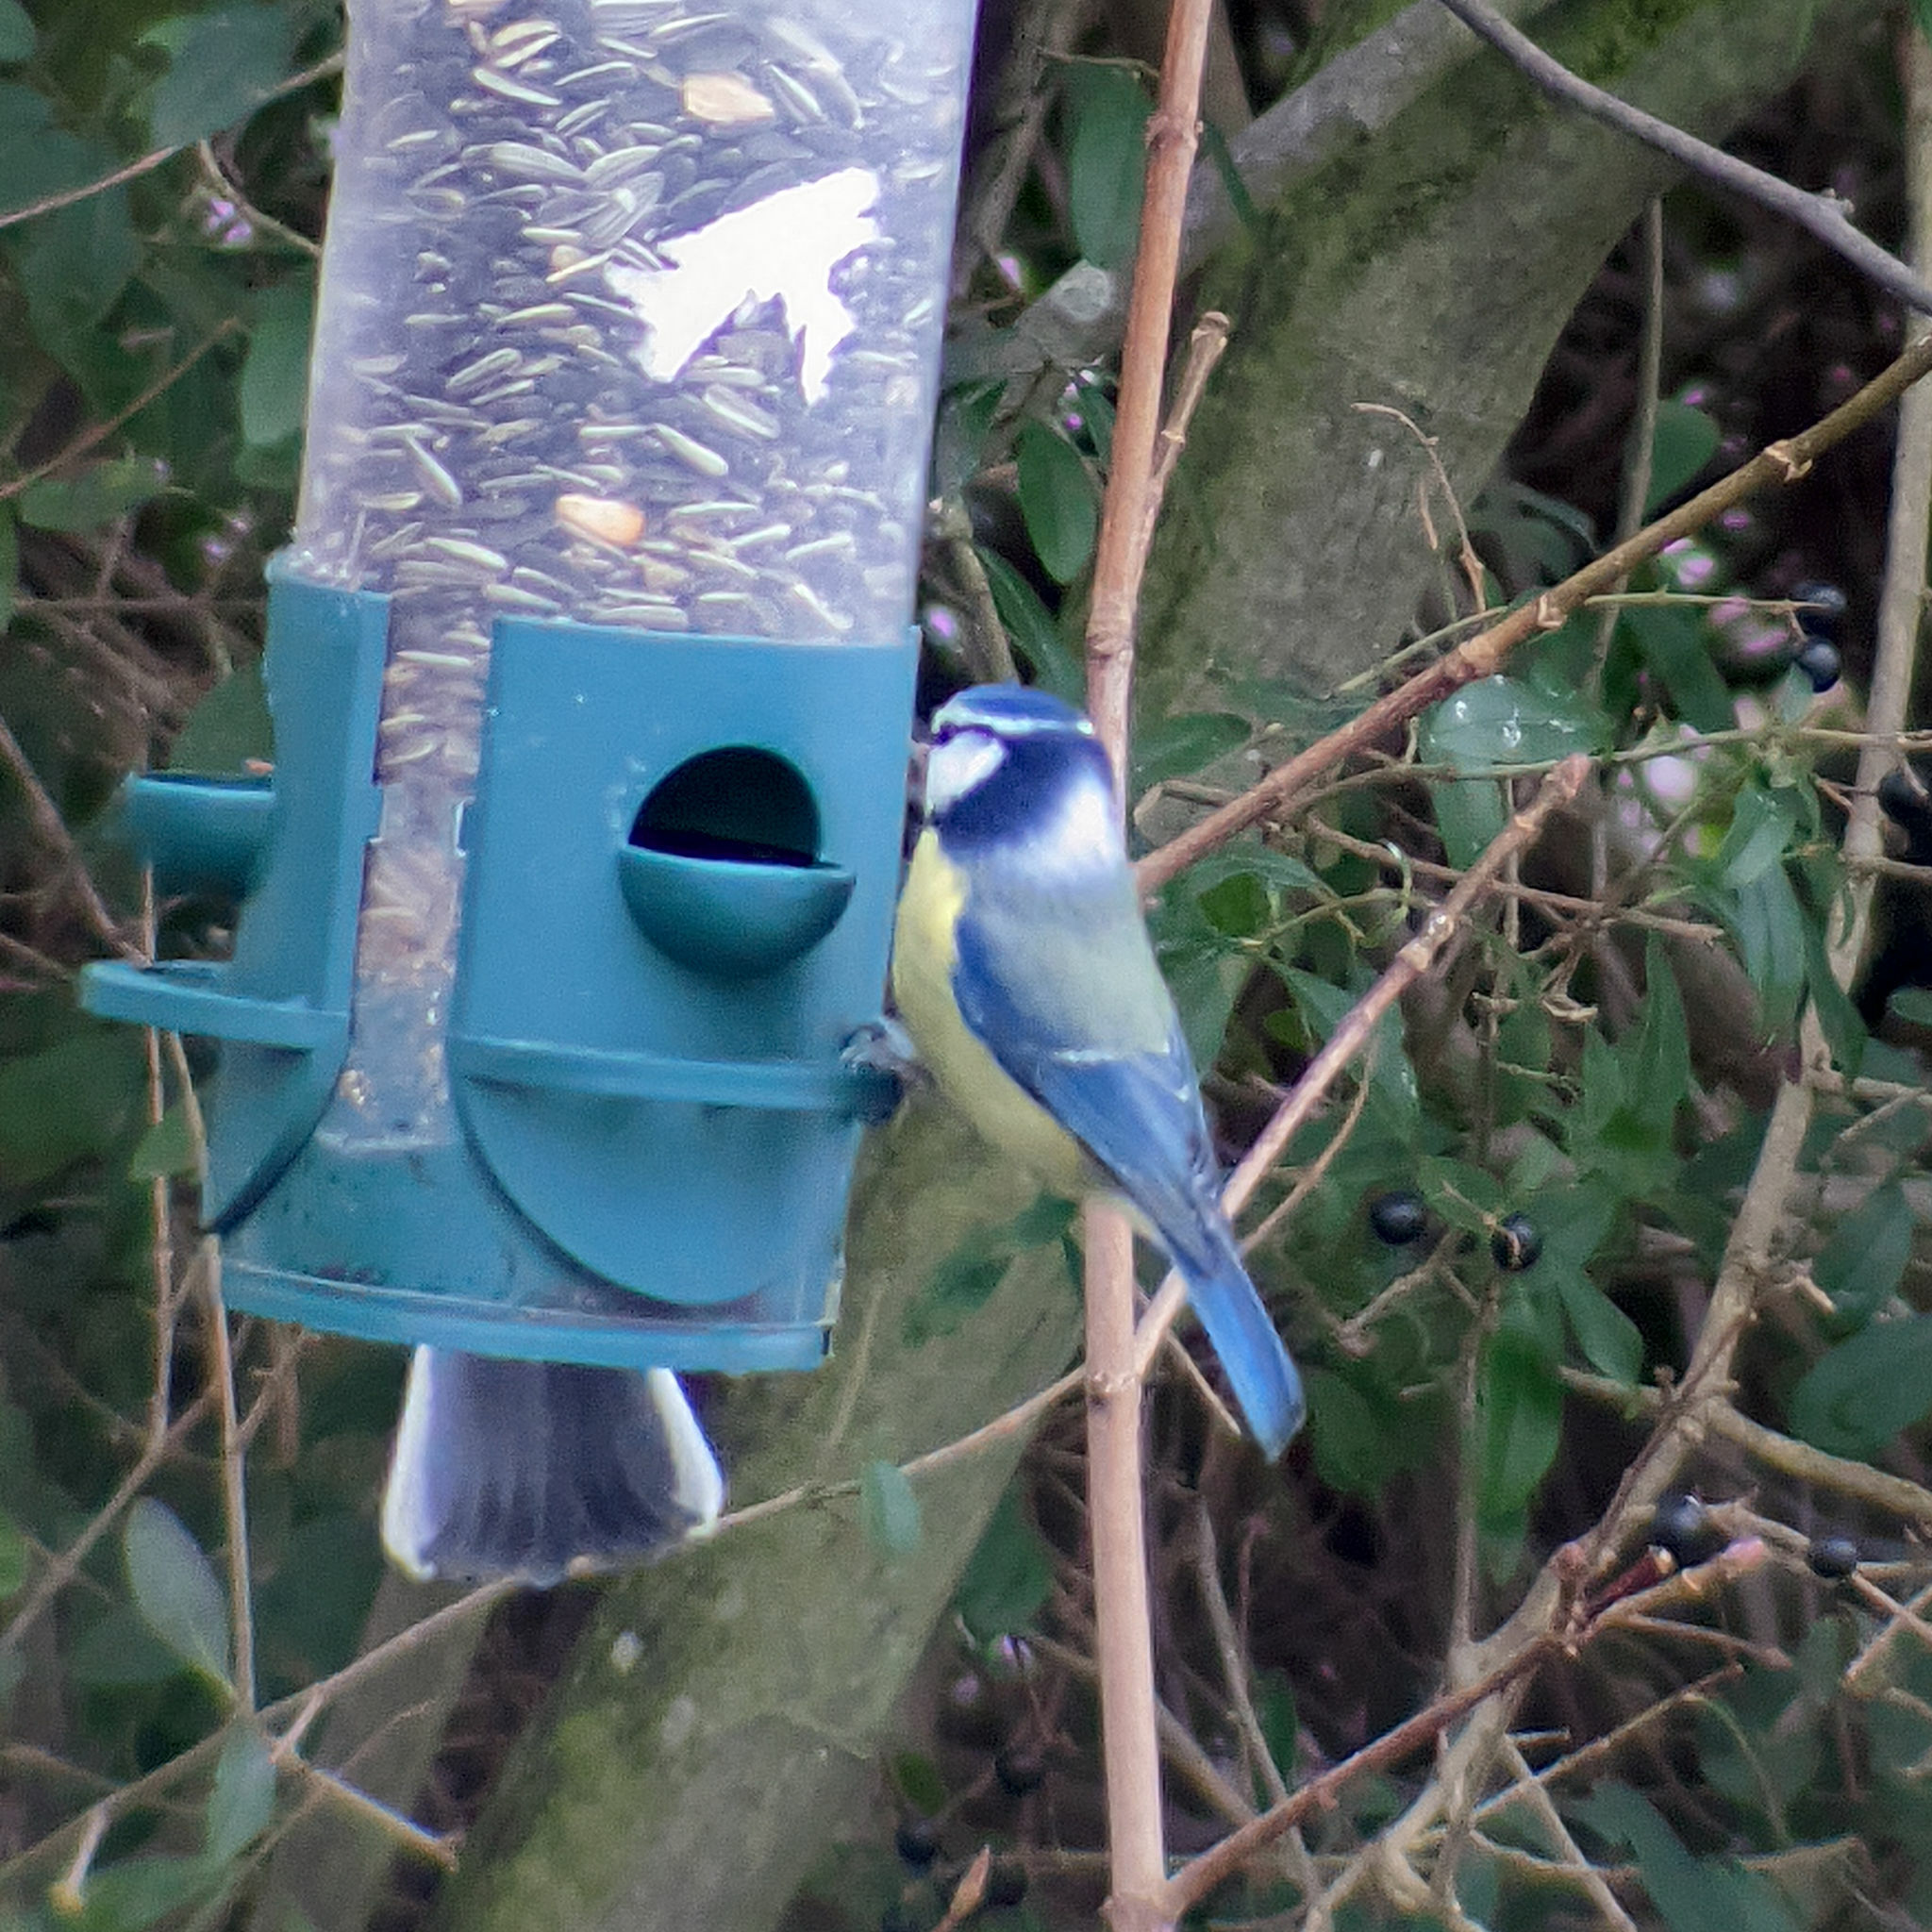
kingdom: Animalia
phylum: Chordata
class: Aves
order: Passeriformes
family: Paridae
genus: Cyanistes
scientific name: Cyanistes caeruleus
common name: Eurasian blue tit
